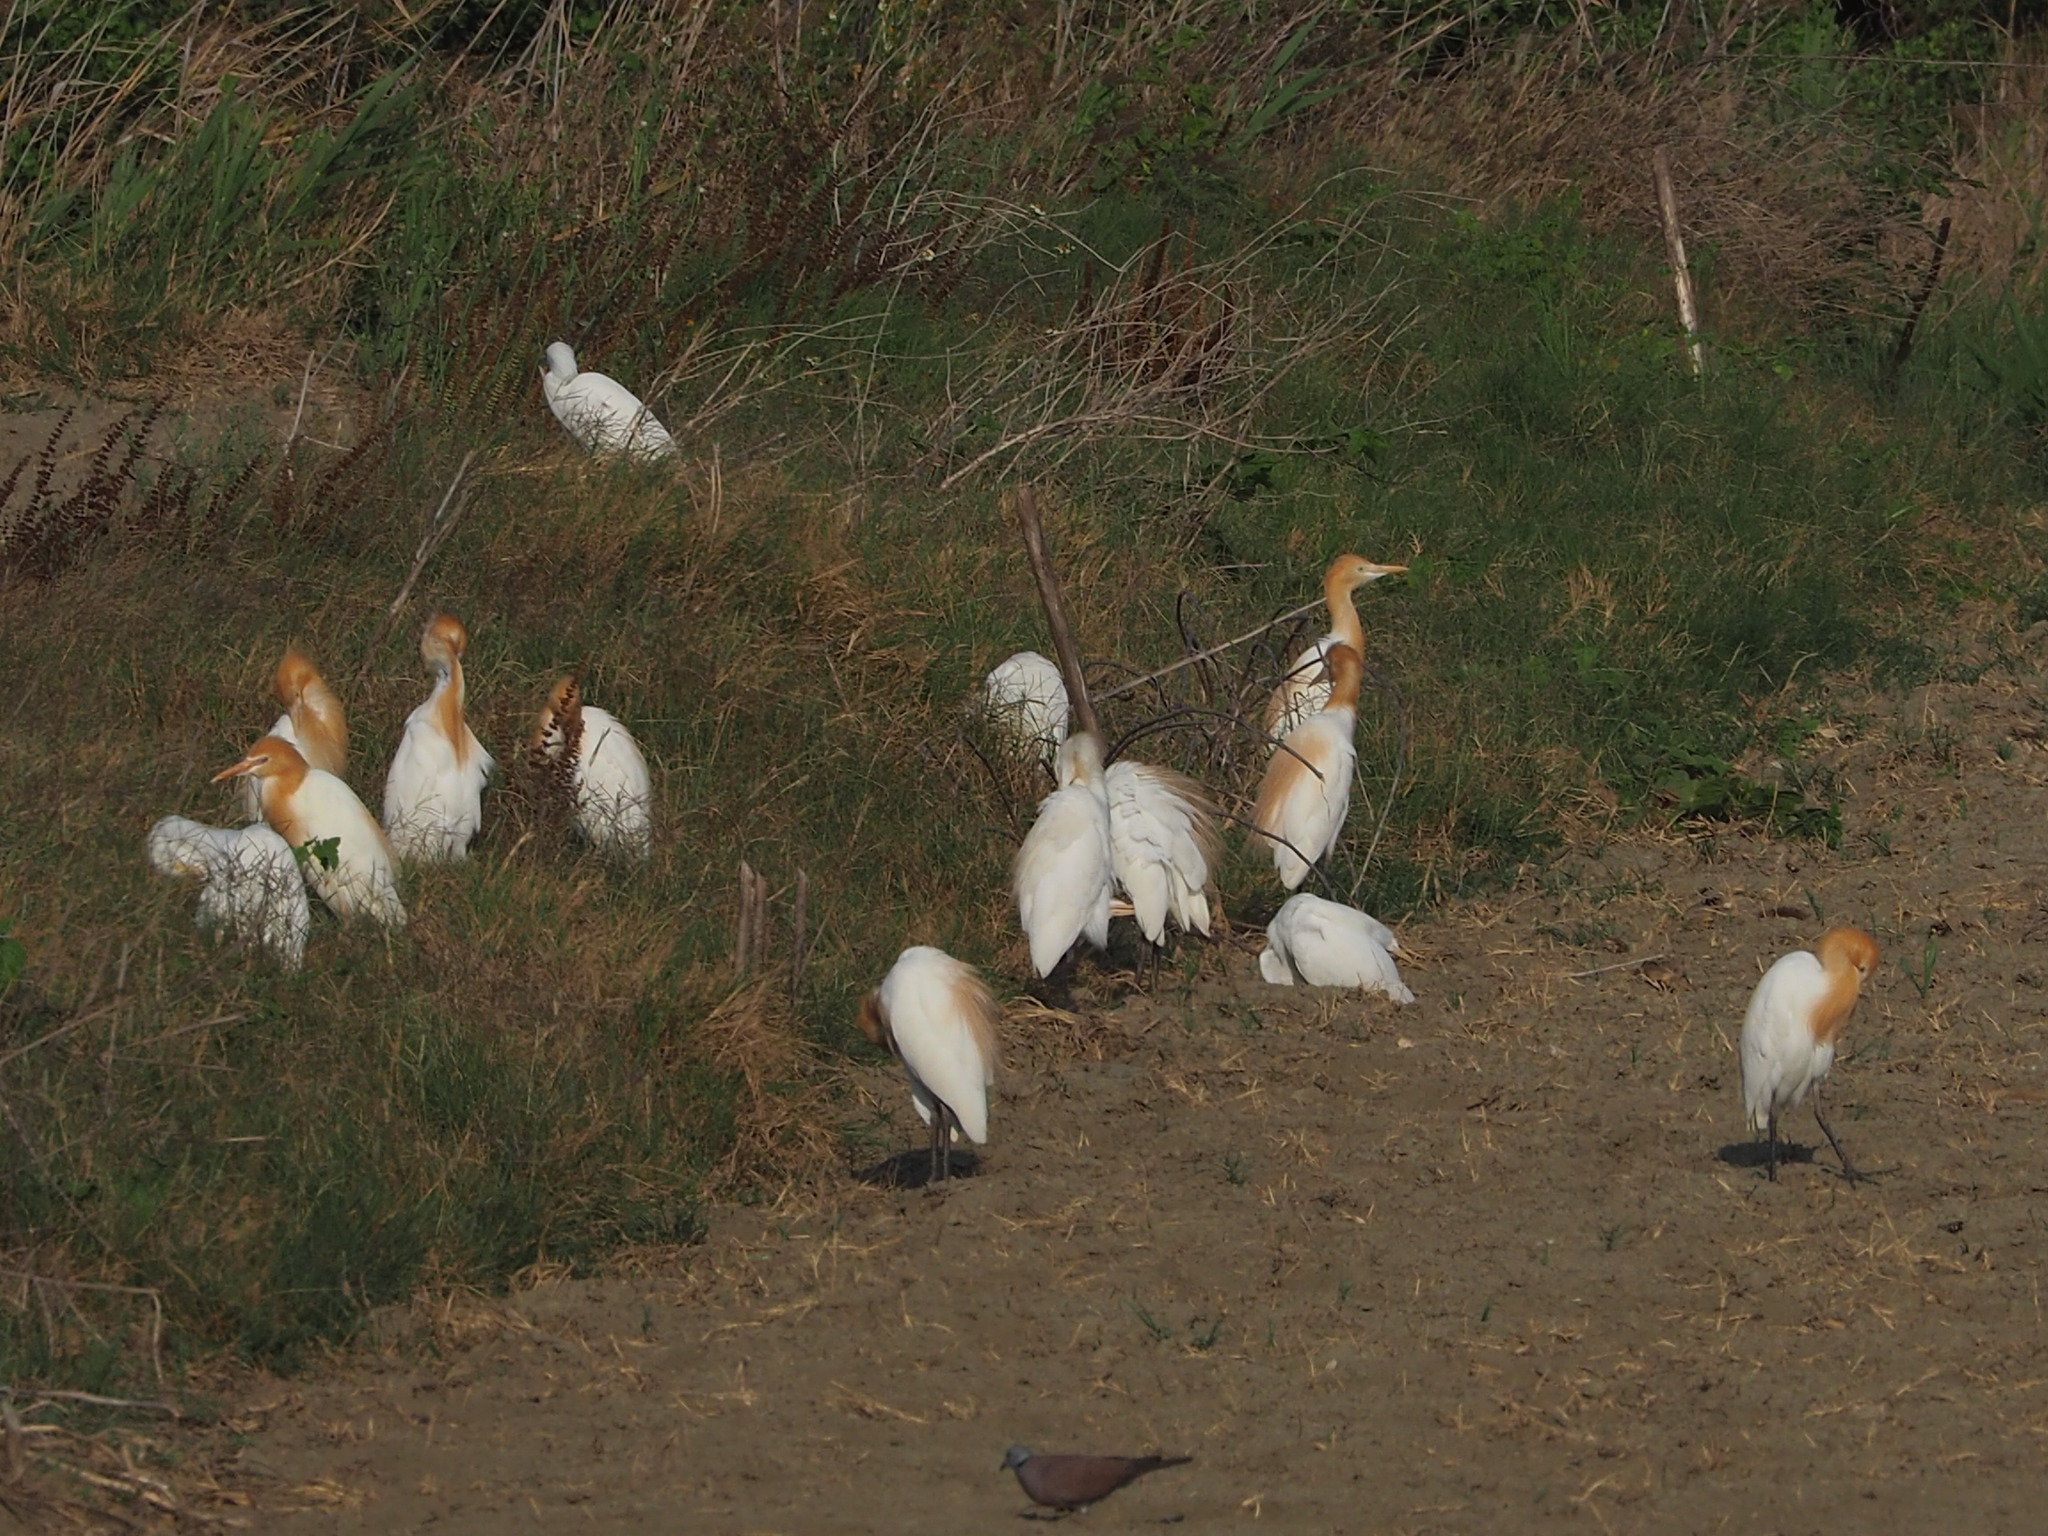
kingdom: Animalia
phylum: Chordata
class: Aves
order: Pelecaniformes
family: Ardeidae
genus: Bubulcus
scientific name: Bubulcus coromandus
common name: Eastern cattle egret
